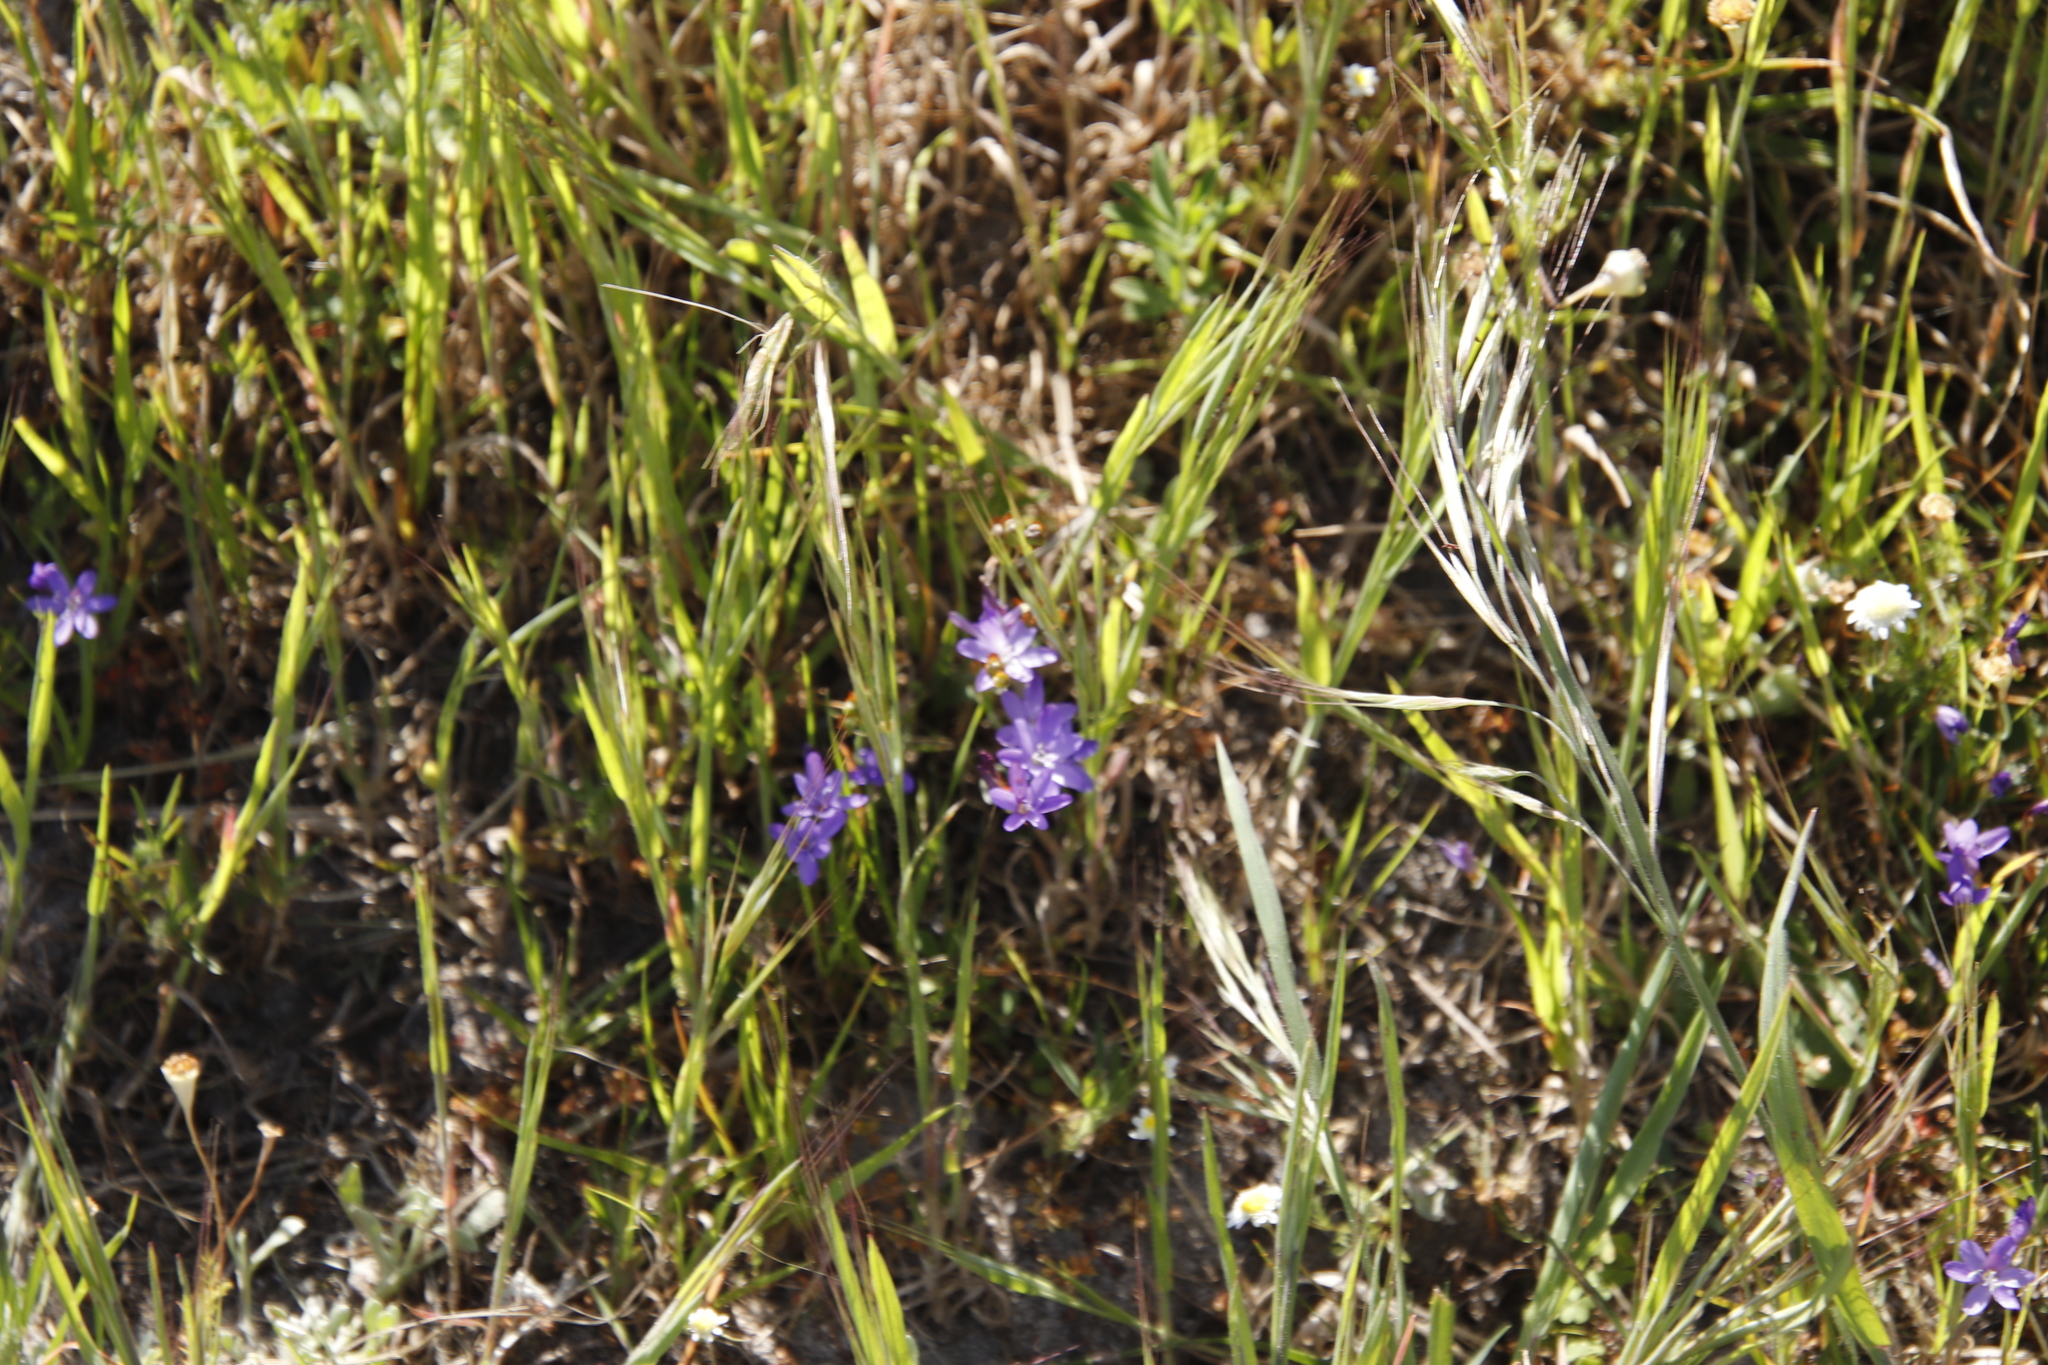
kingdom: Plantae
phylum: Tracheophyta
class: Liliopsida
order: Asparagales
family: Iridaceae
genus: Geissorhiza
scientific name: Geissorhiza aspera
